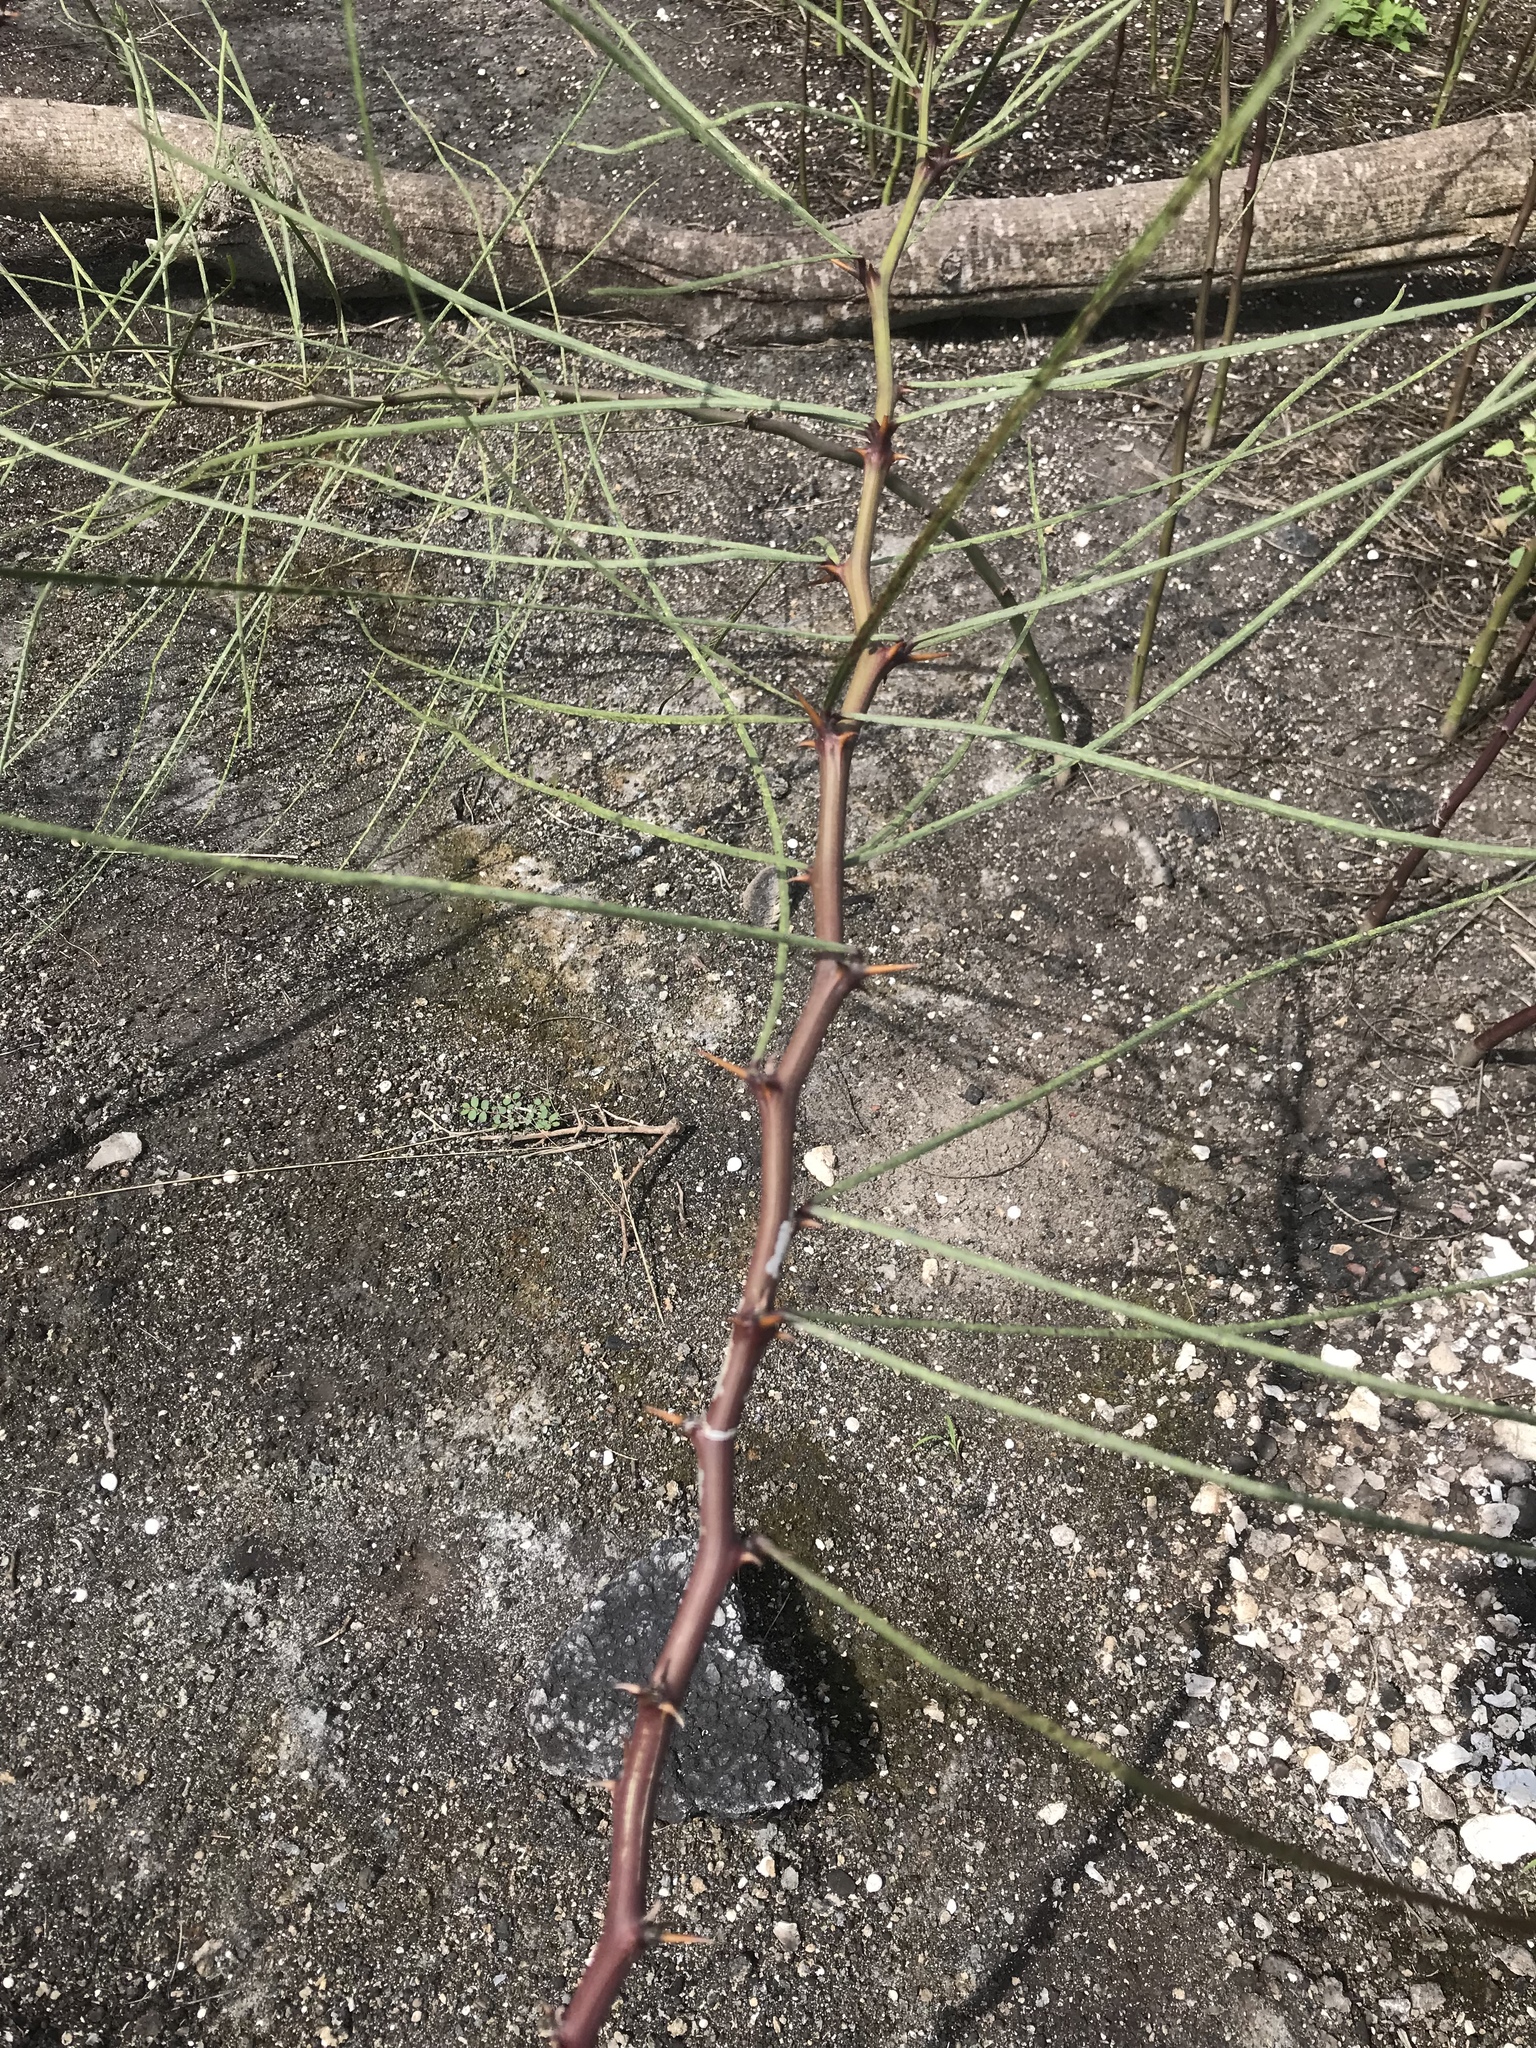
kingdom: Plantae
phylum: Tracheophyta
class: Magnoliopsida
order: Fabales
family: Fabaceae
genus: Gleditsia
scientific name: Gleditsia triacanthos
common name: Common honeylocust
